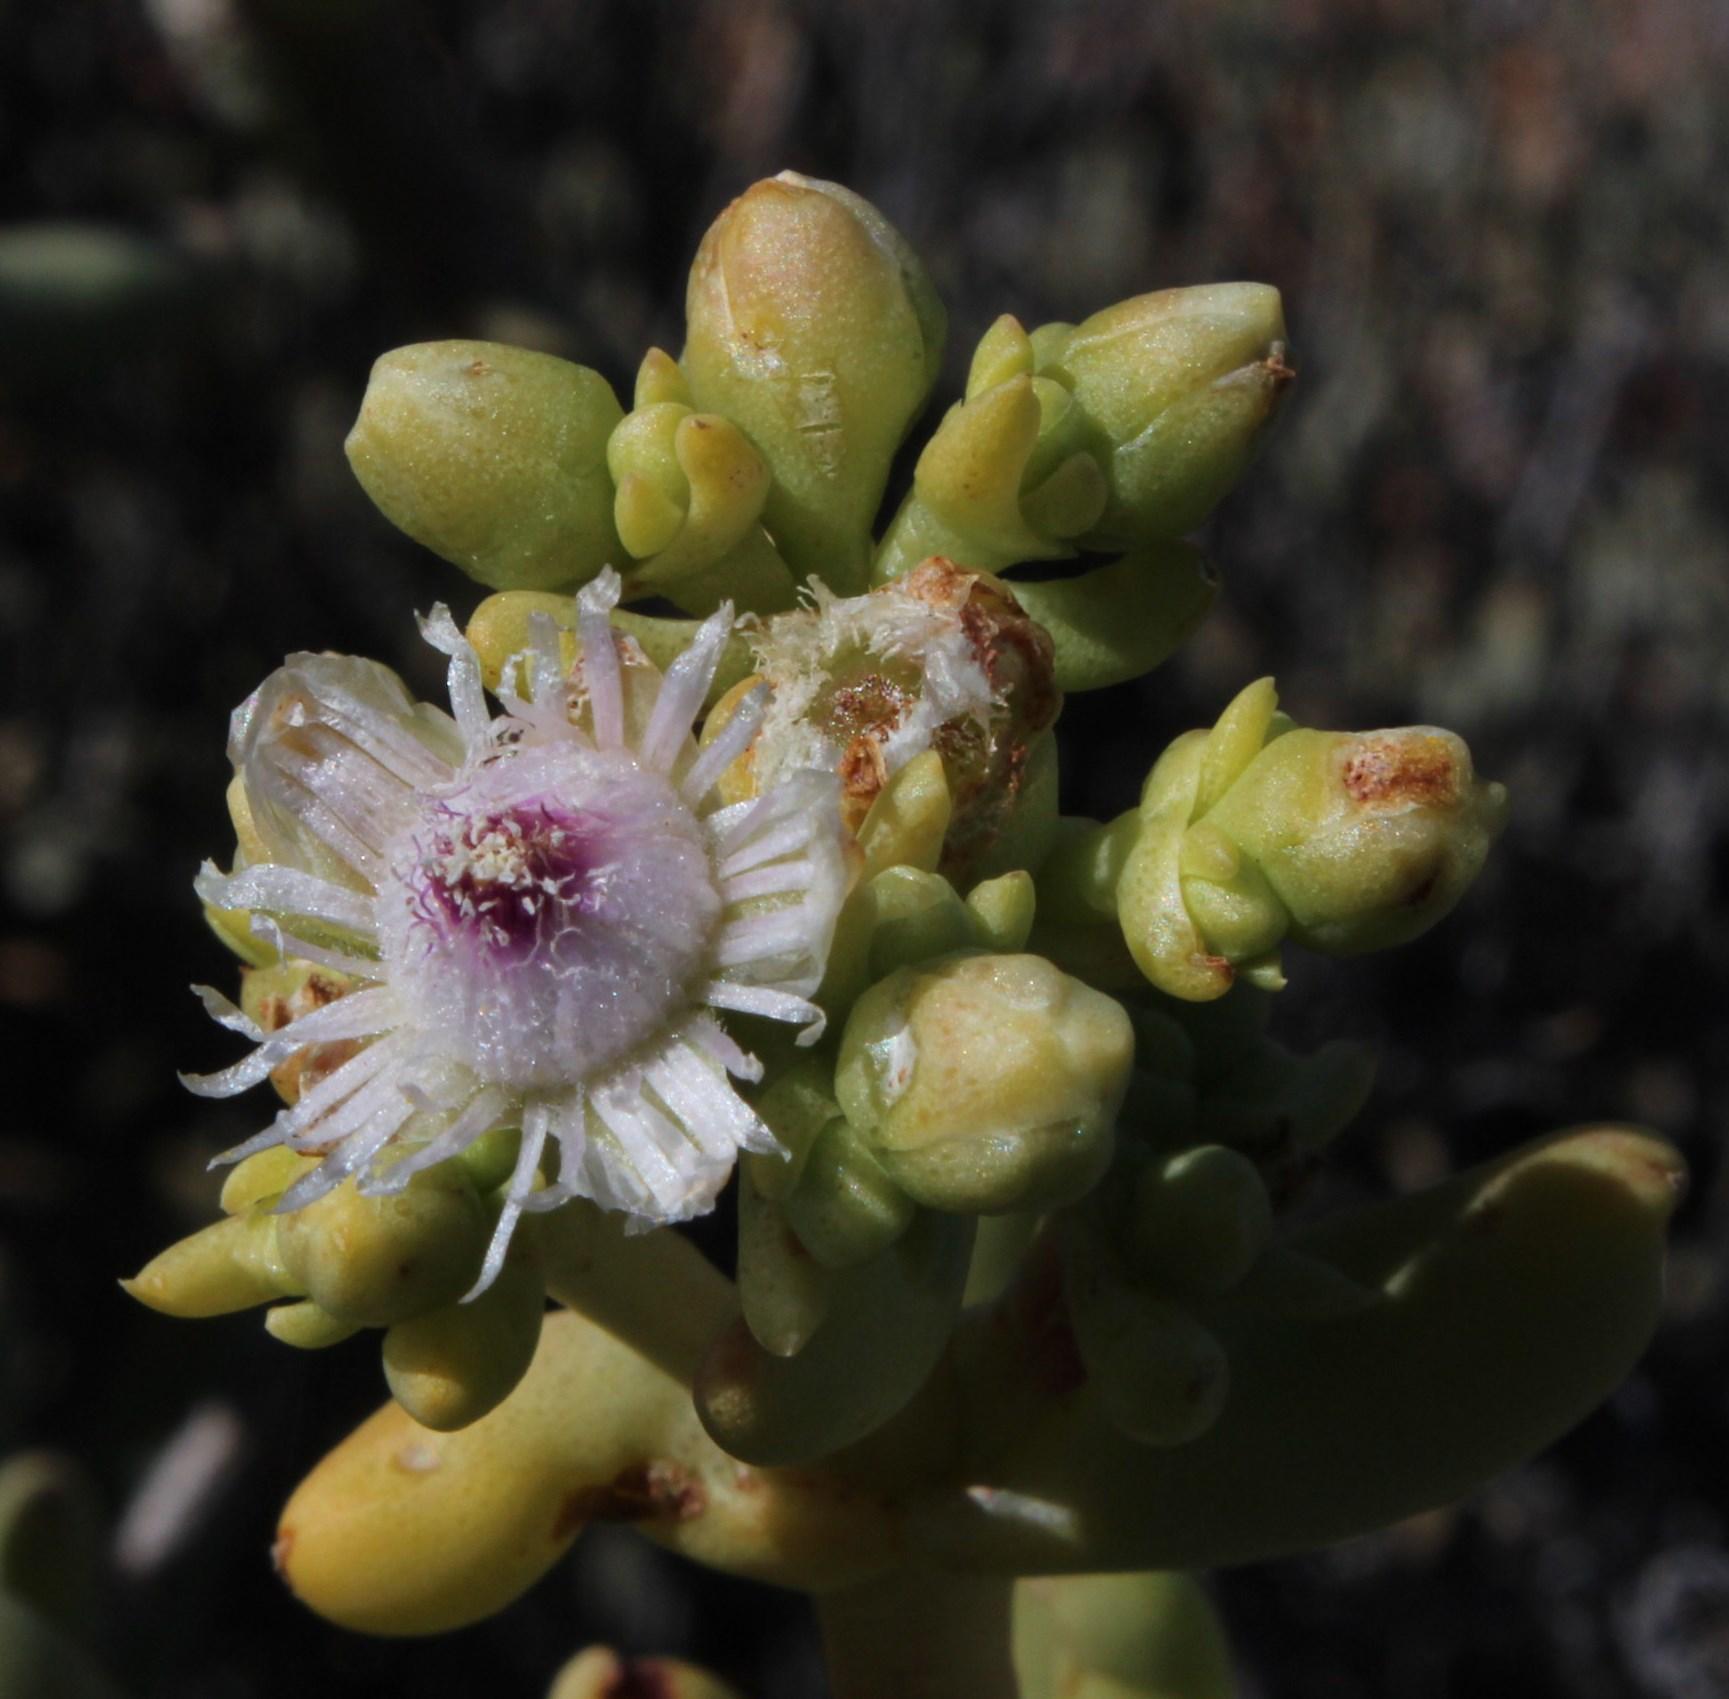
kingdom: Plantae
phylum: Tracheophyta
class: Magnoliopsida
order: Caryophyllales
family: Aizoaceae
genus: Ruschianthemum
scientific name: Ruschianthemum gigas
